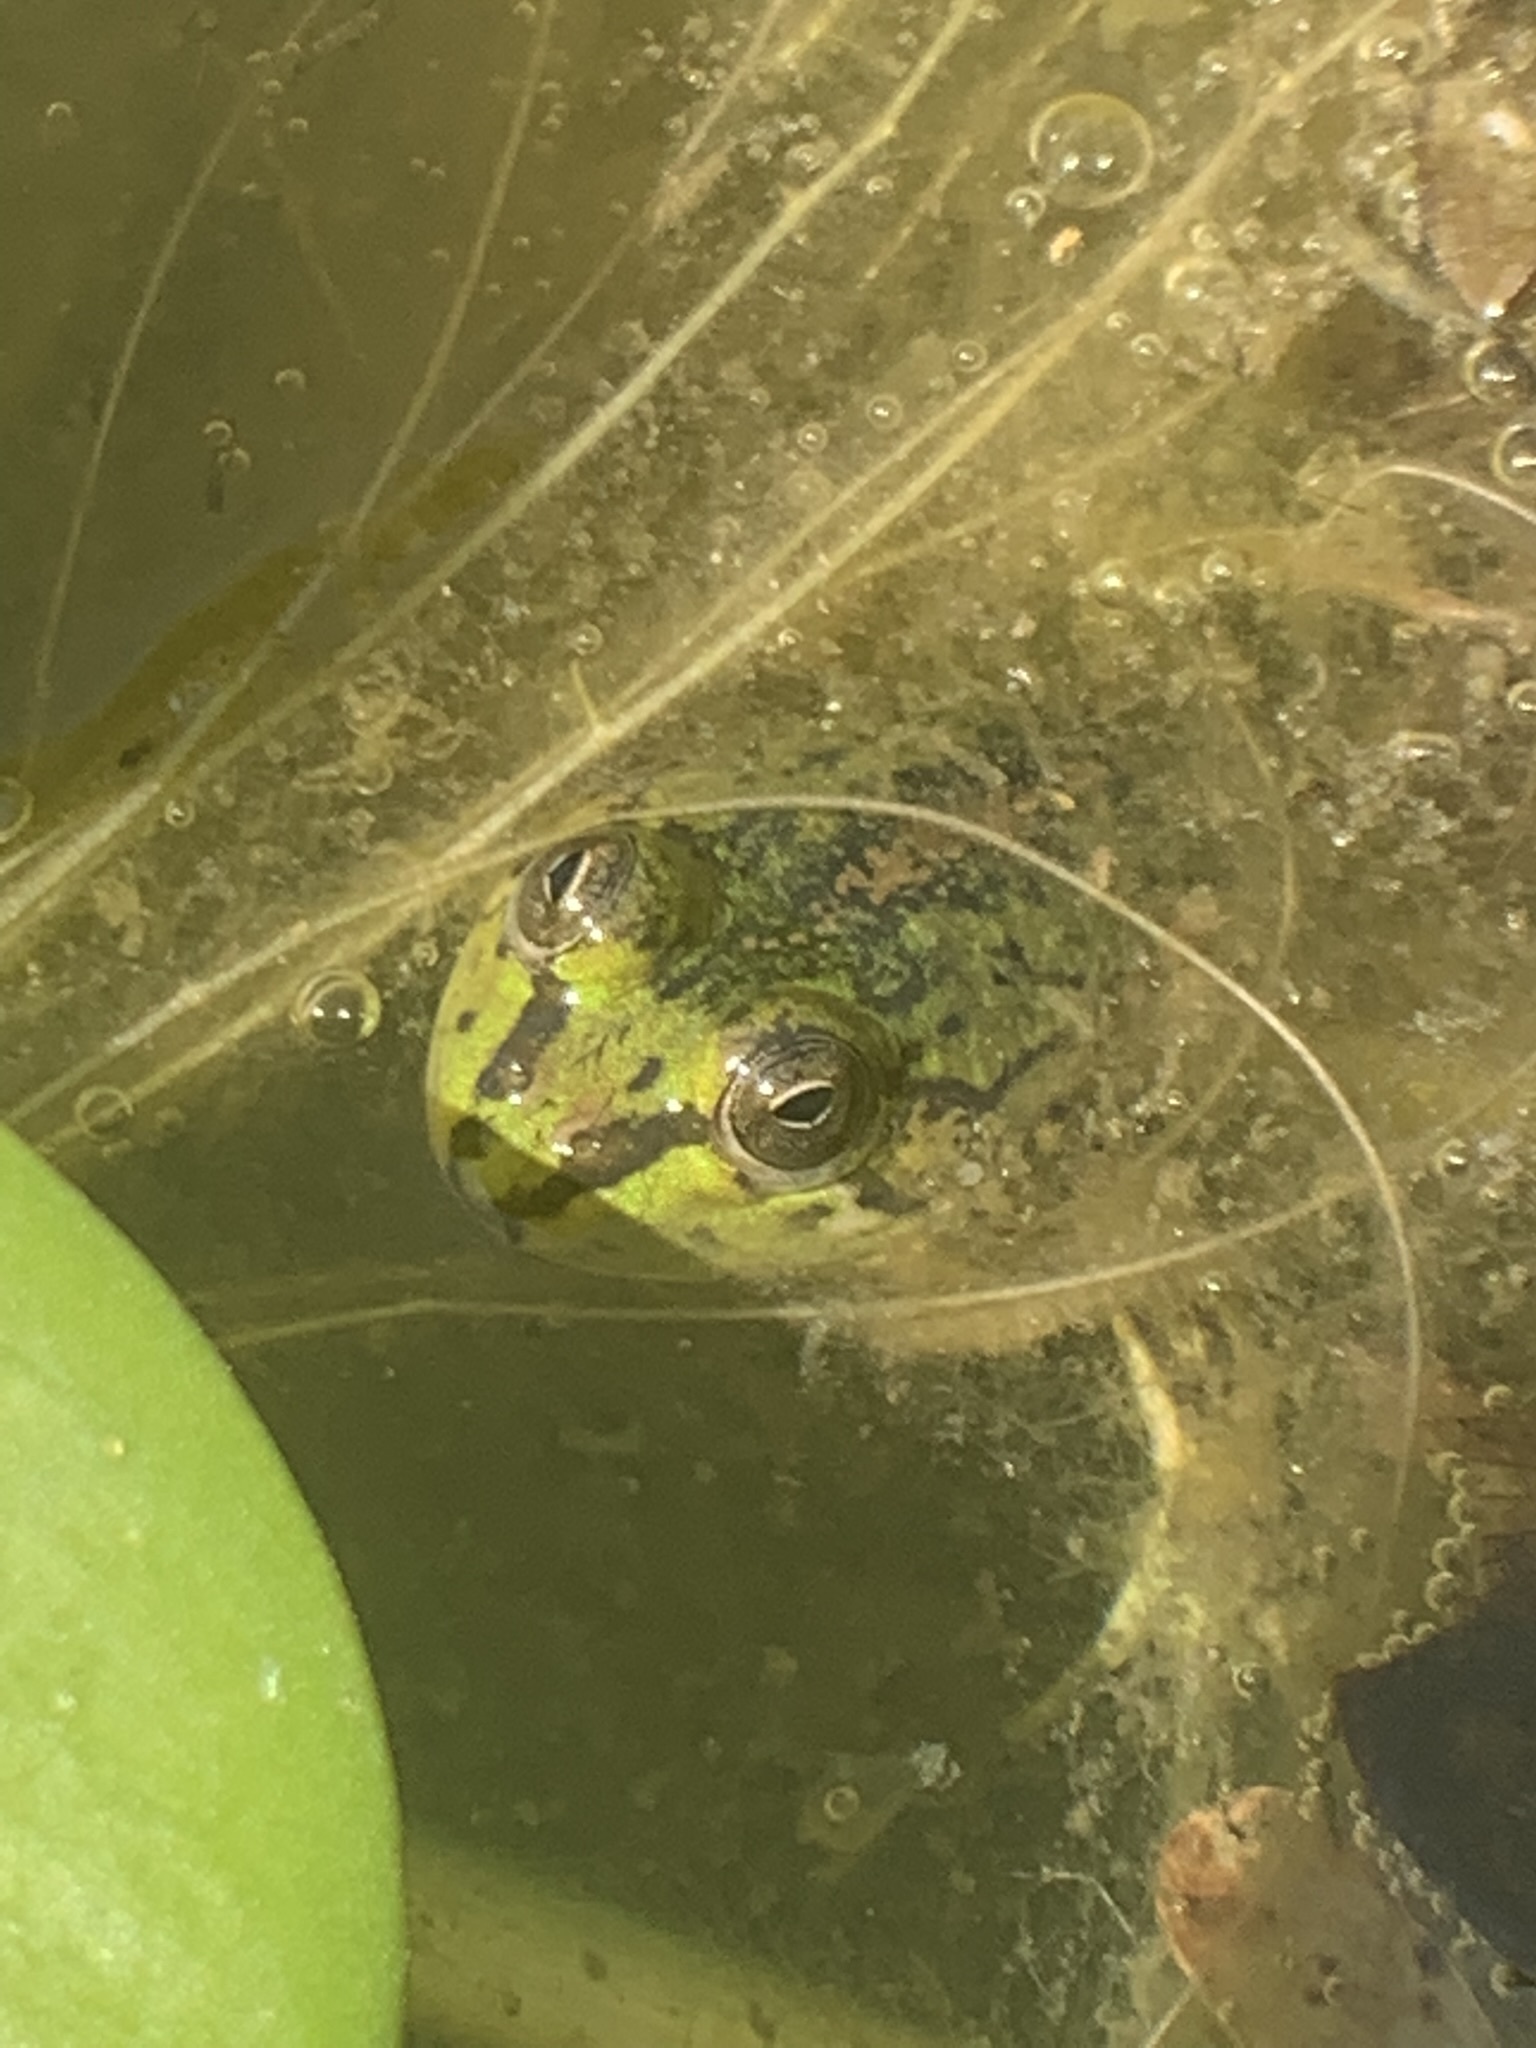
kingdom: Animalia
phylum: Chordata
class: Amphibia
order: Anura
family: Hylidae
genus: Pseudis
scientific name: Pseudis minuta
